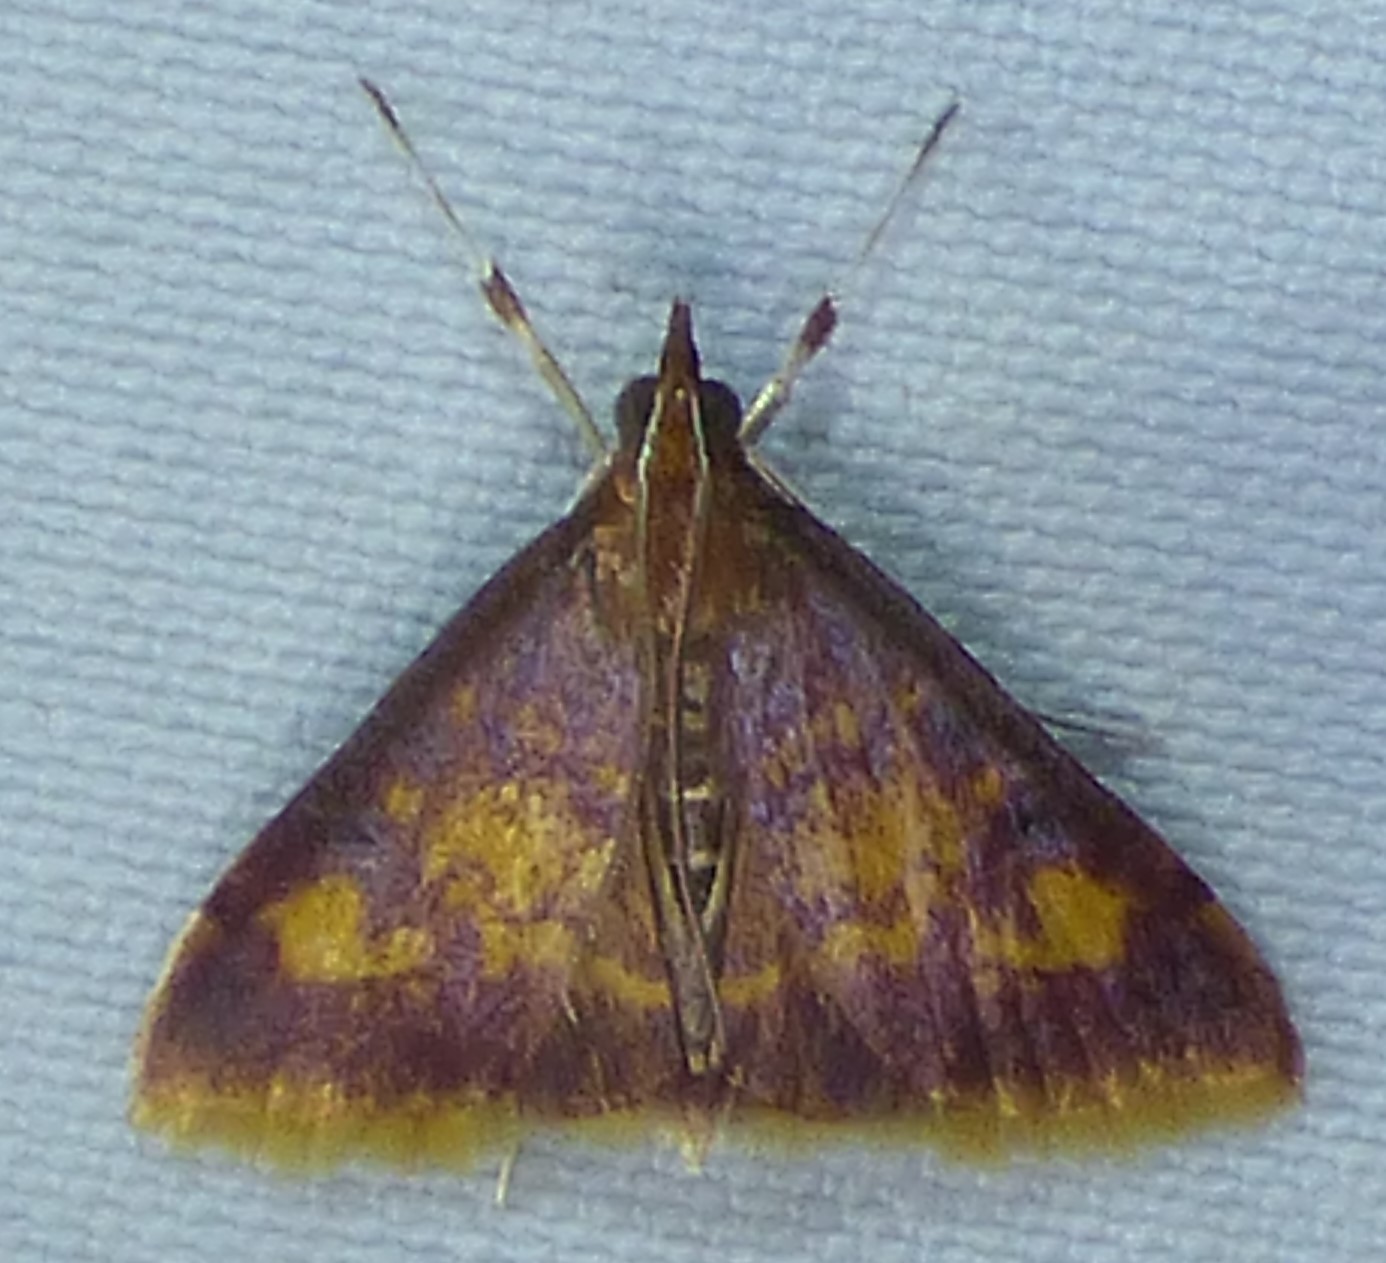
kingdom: Animalia
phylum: Arthropoda
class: Insecta
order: Lepidoptera
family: Crambidae
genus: Pyrausta
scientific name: Pyrausta acrionalis
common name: Mint-loving pyrausta moth
